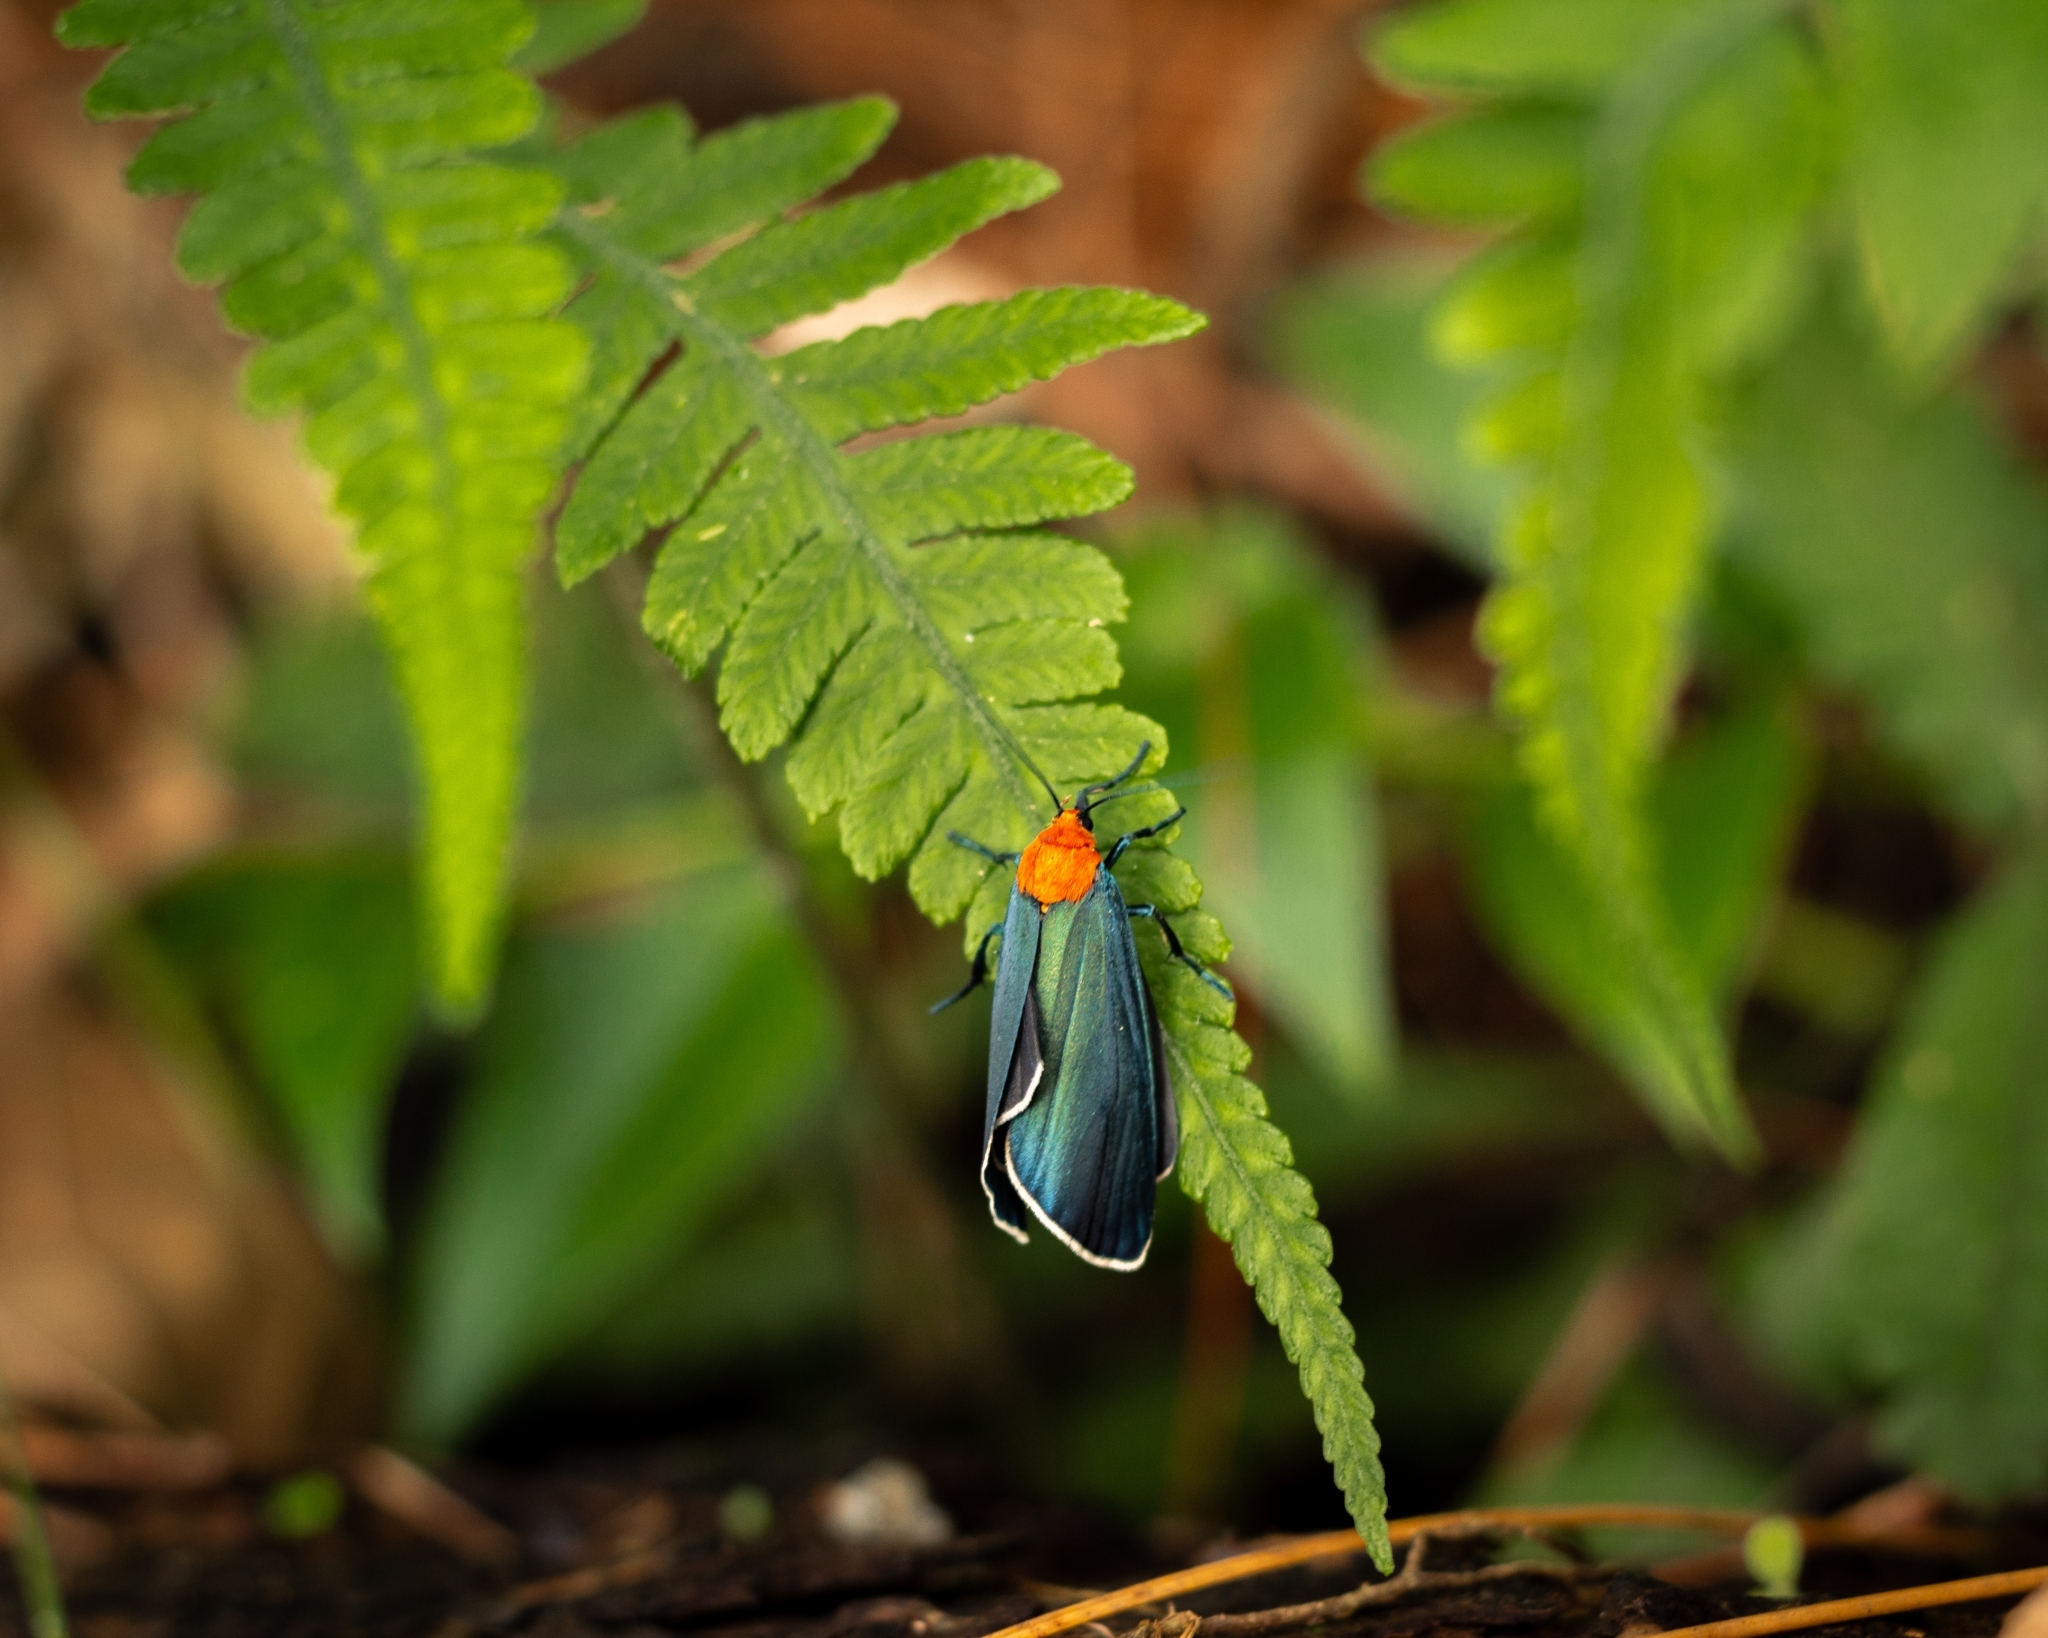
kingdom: Animalia
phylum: Arthropoda
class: Insecta
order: Lepidoptera
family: Erebidae
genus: Apistosia
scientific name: Apistosia judas
